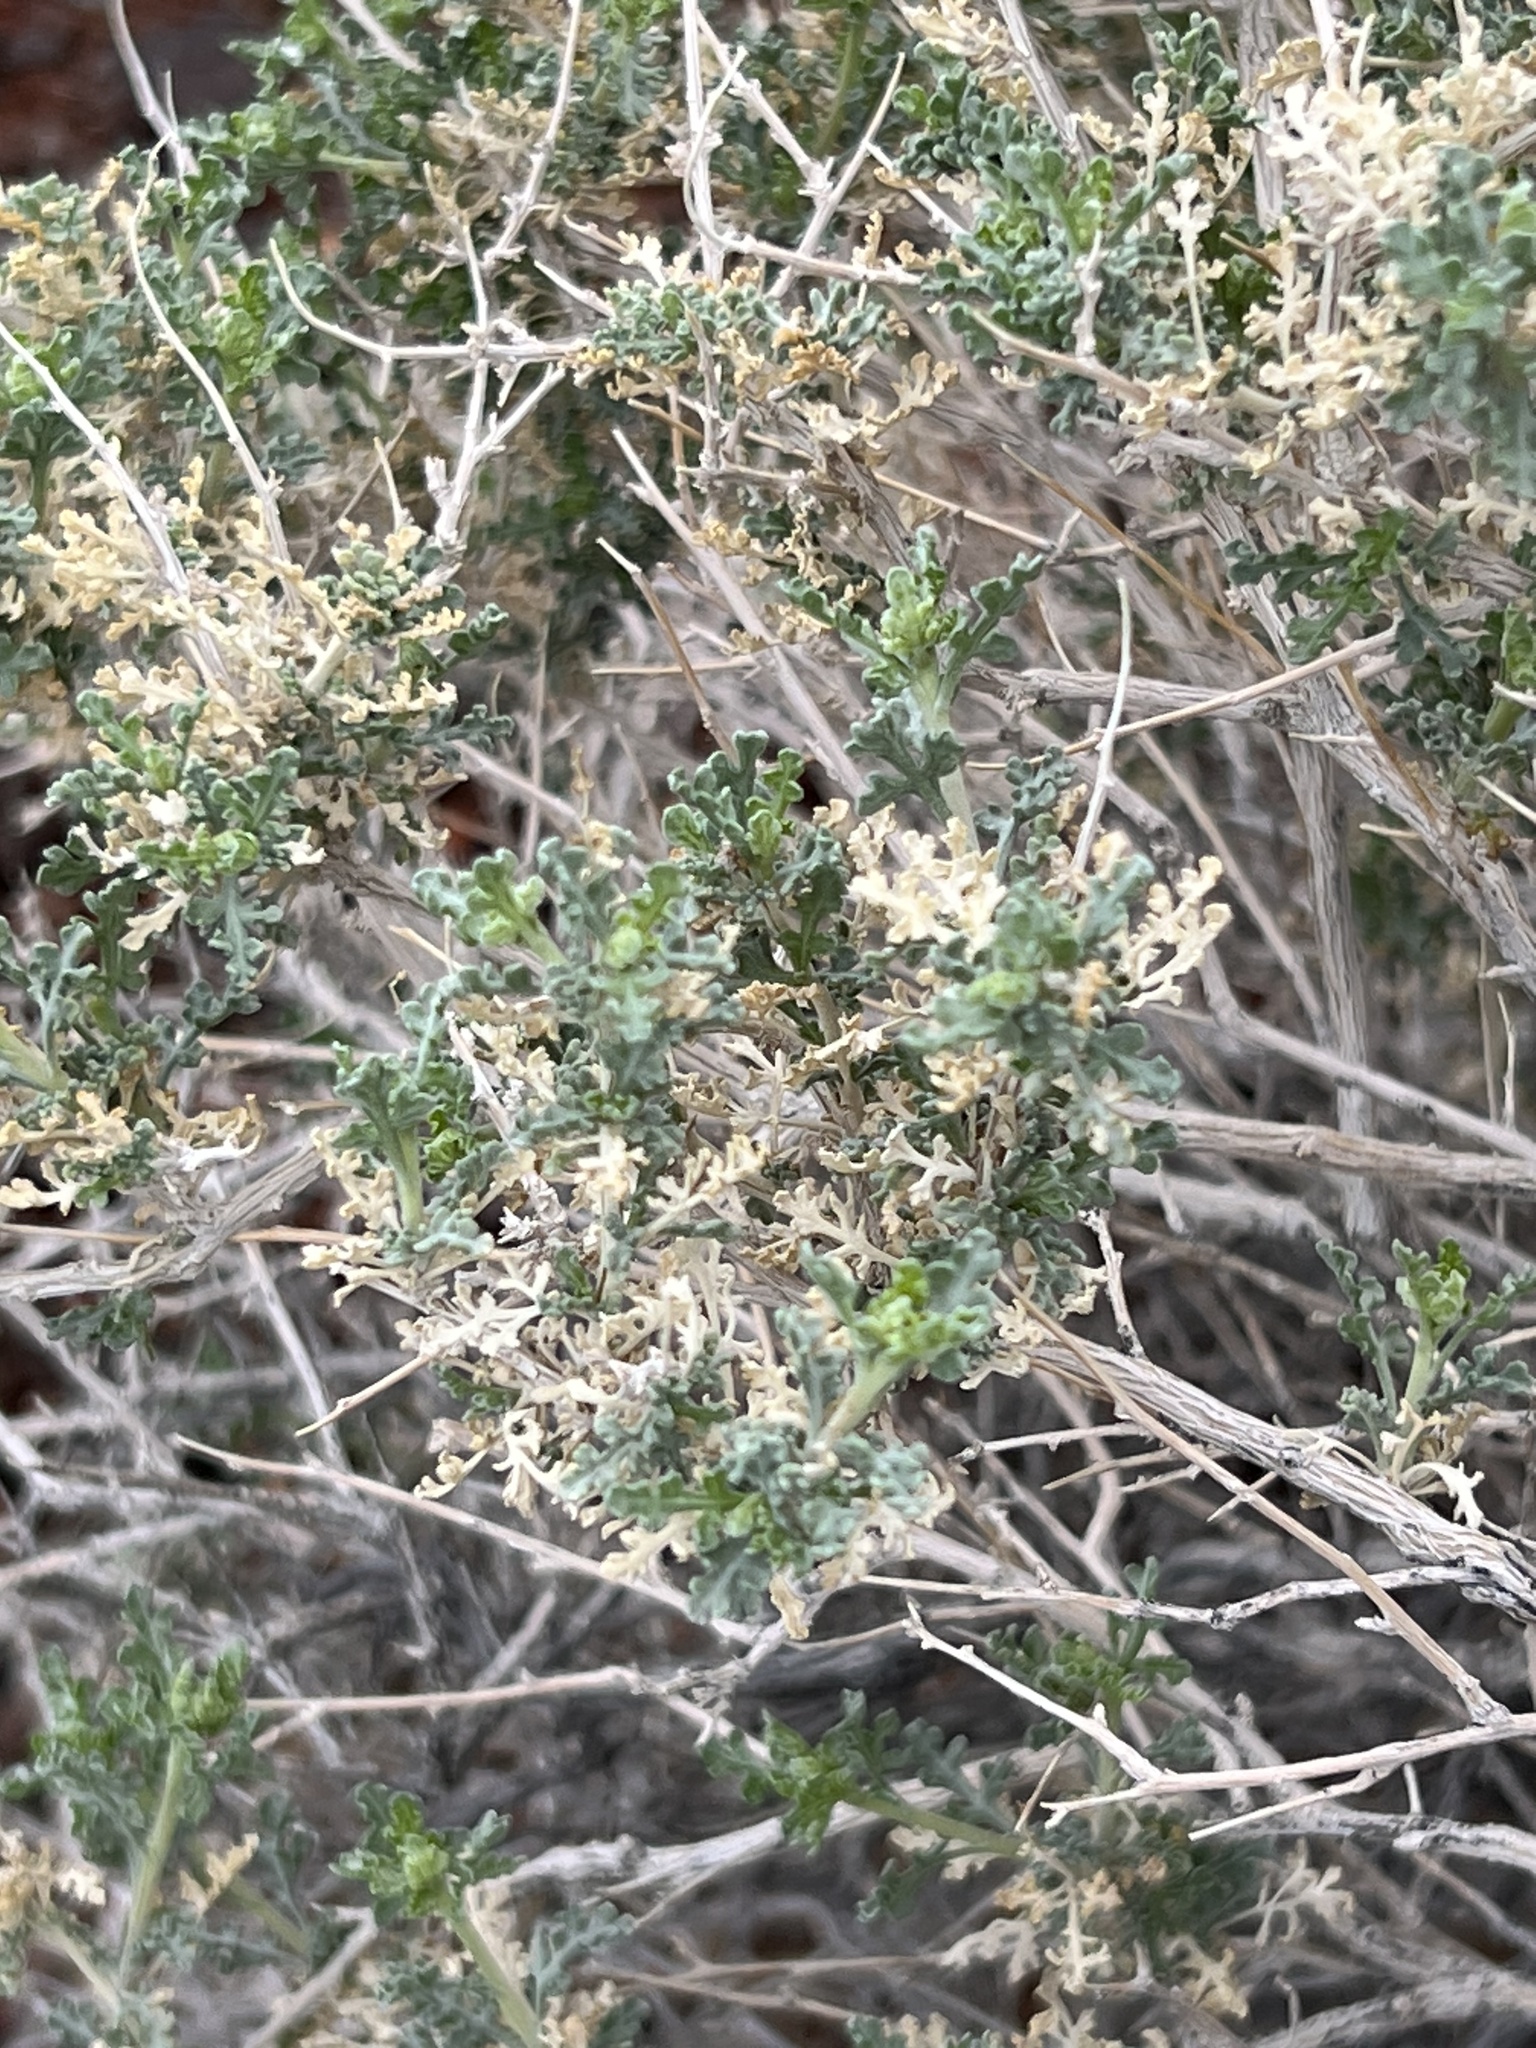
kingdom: Plantae
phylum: Tracheophyta
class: Magnoliopsida
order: Asterales
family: Asteraceae
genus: Ambrosia
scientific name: Ambrosia dumosa
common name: Bur-sage
